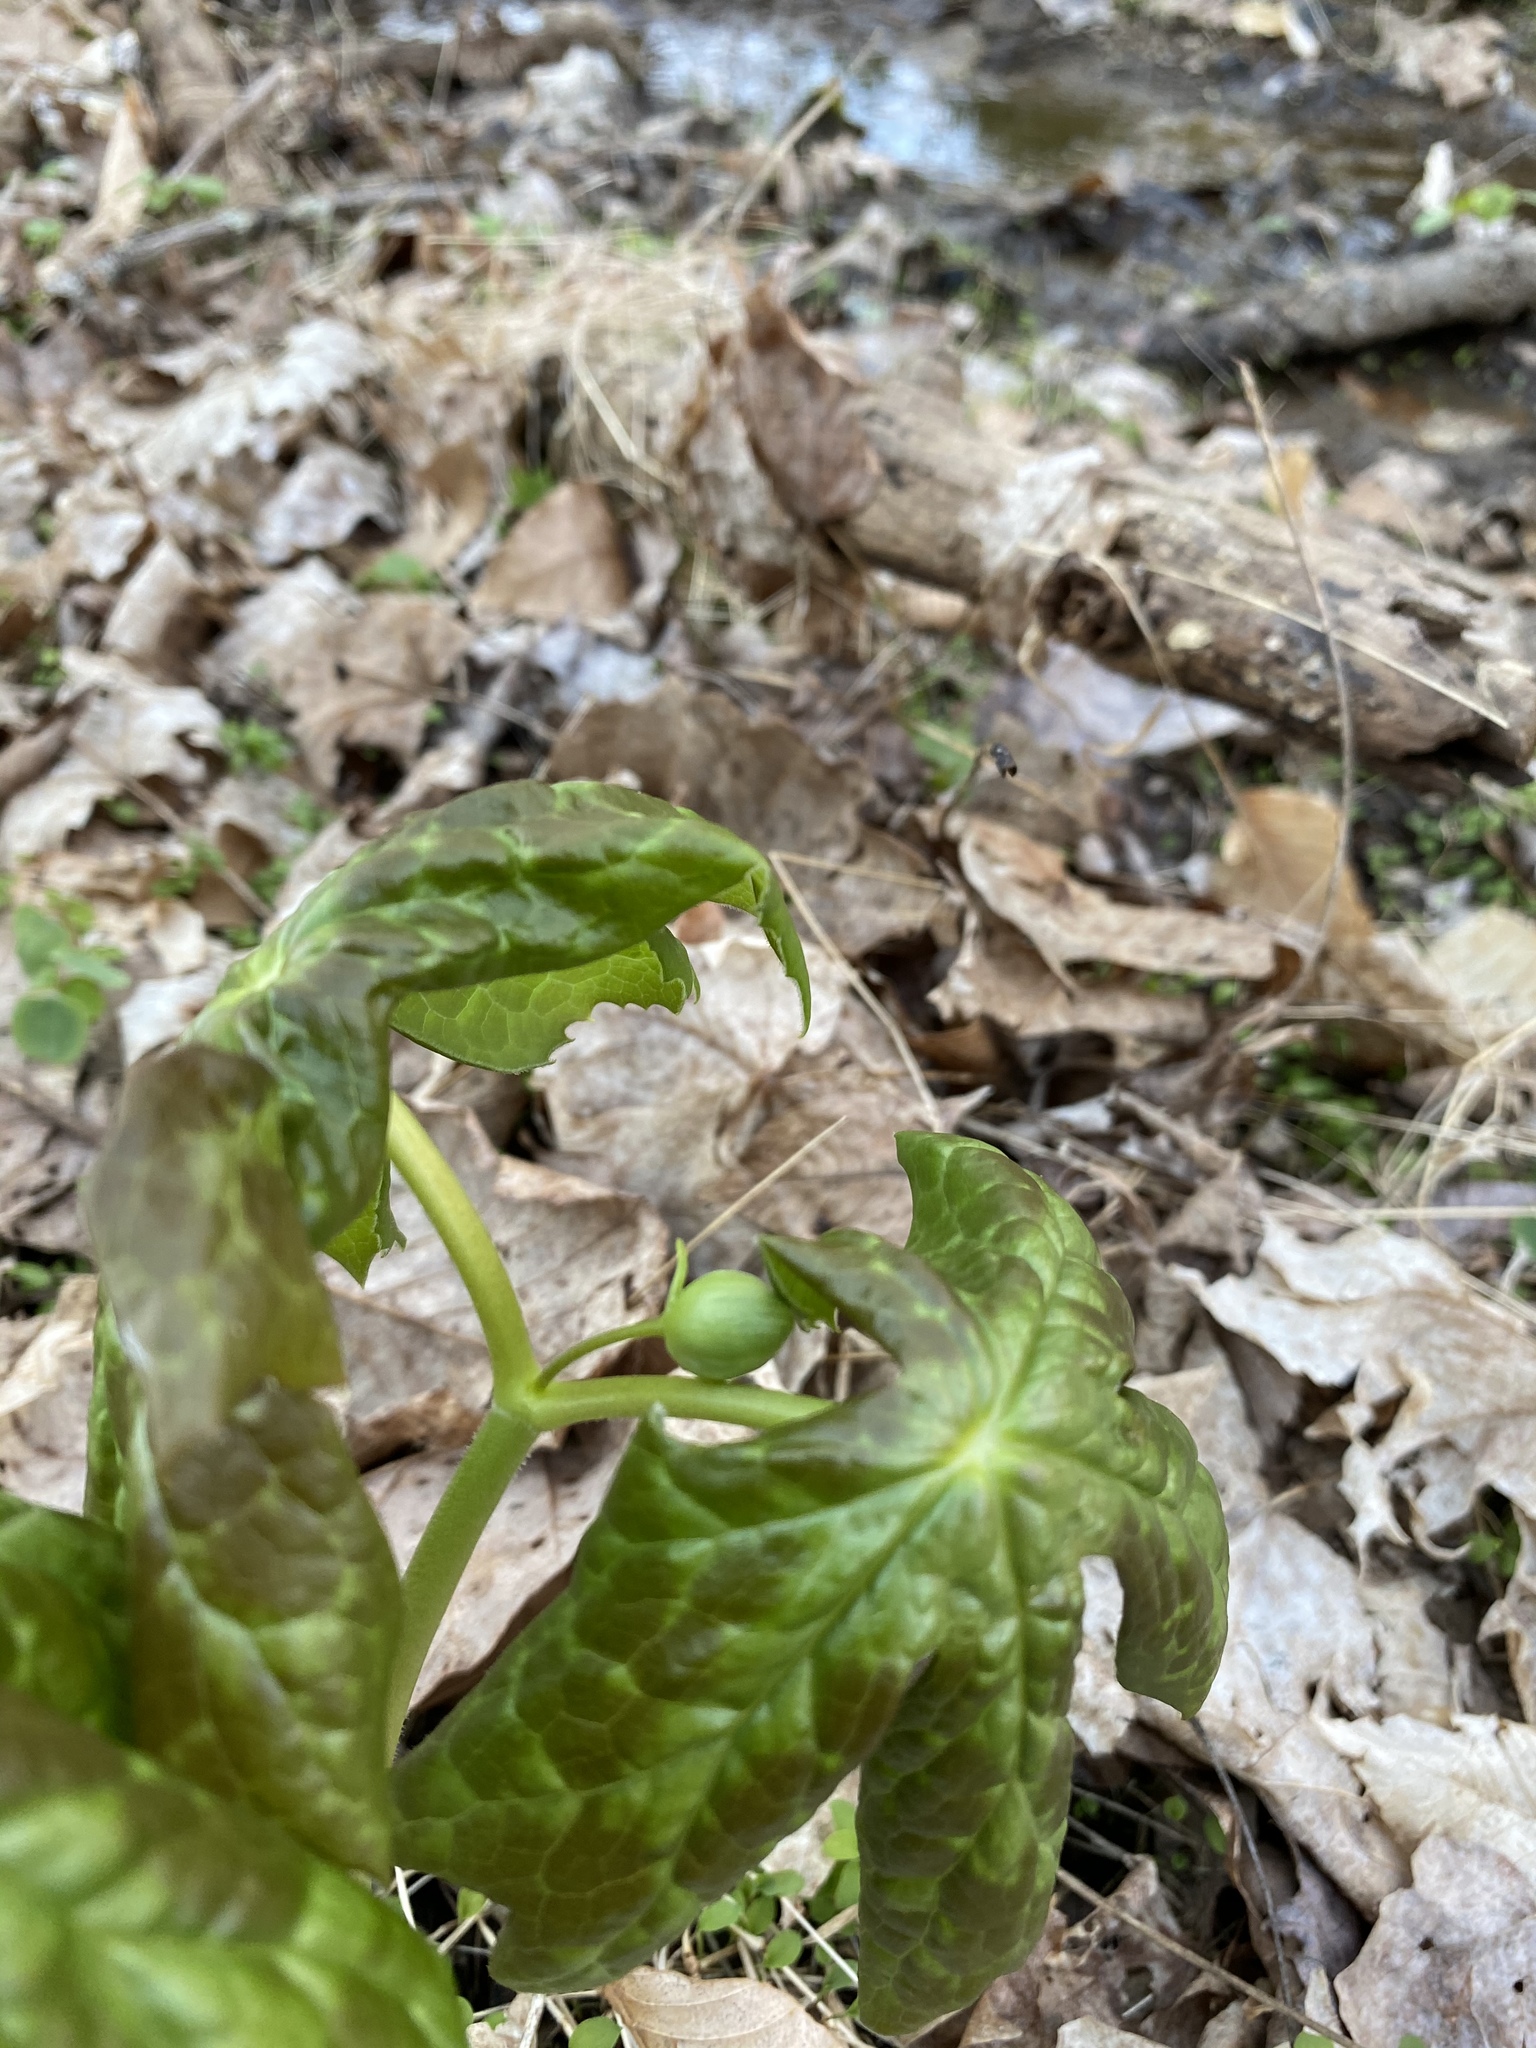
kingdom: Plantae
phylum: Tracheophyta
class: Magnoliopsida
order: Ranunculales
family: Berberidaceae
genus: Podophyllum
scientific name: Podophyllum peltatum
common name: Wild mandrake
